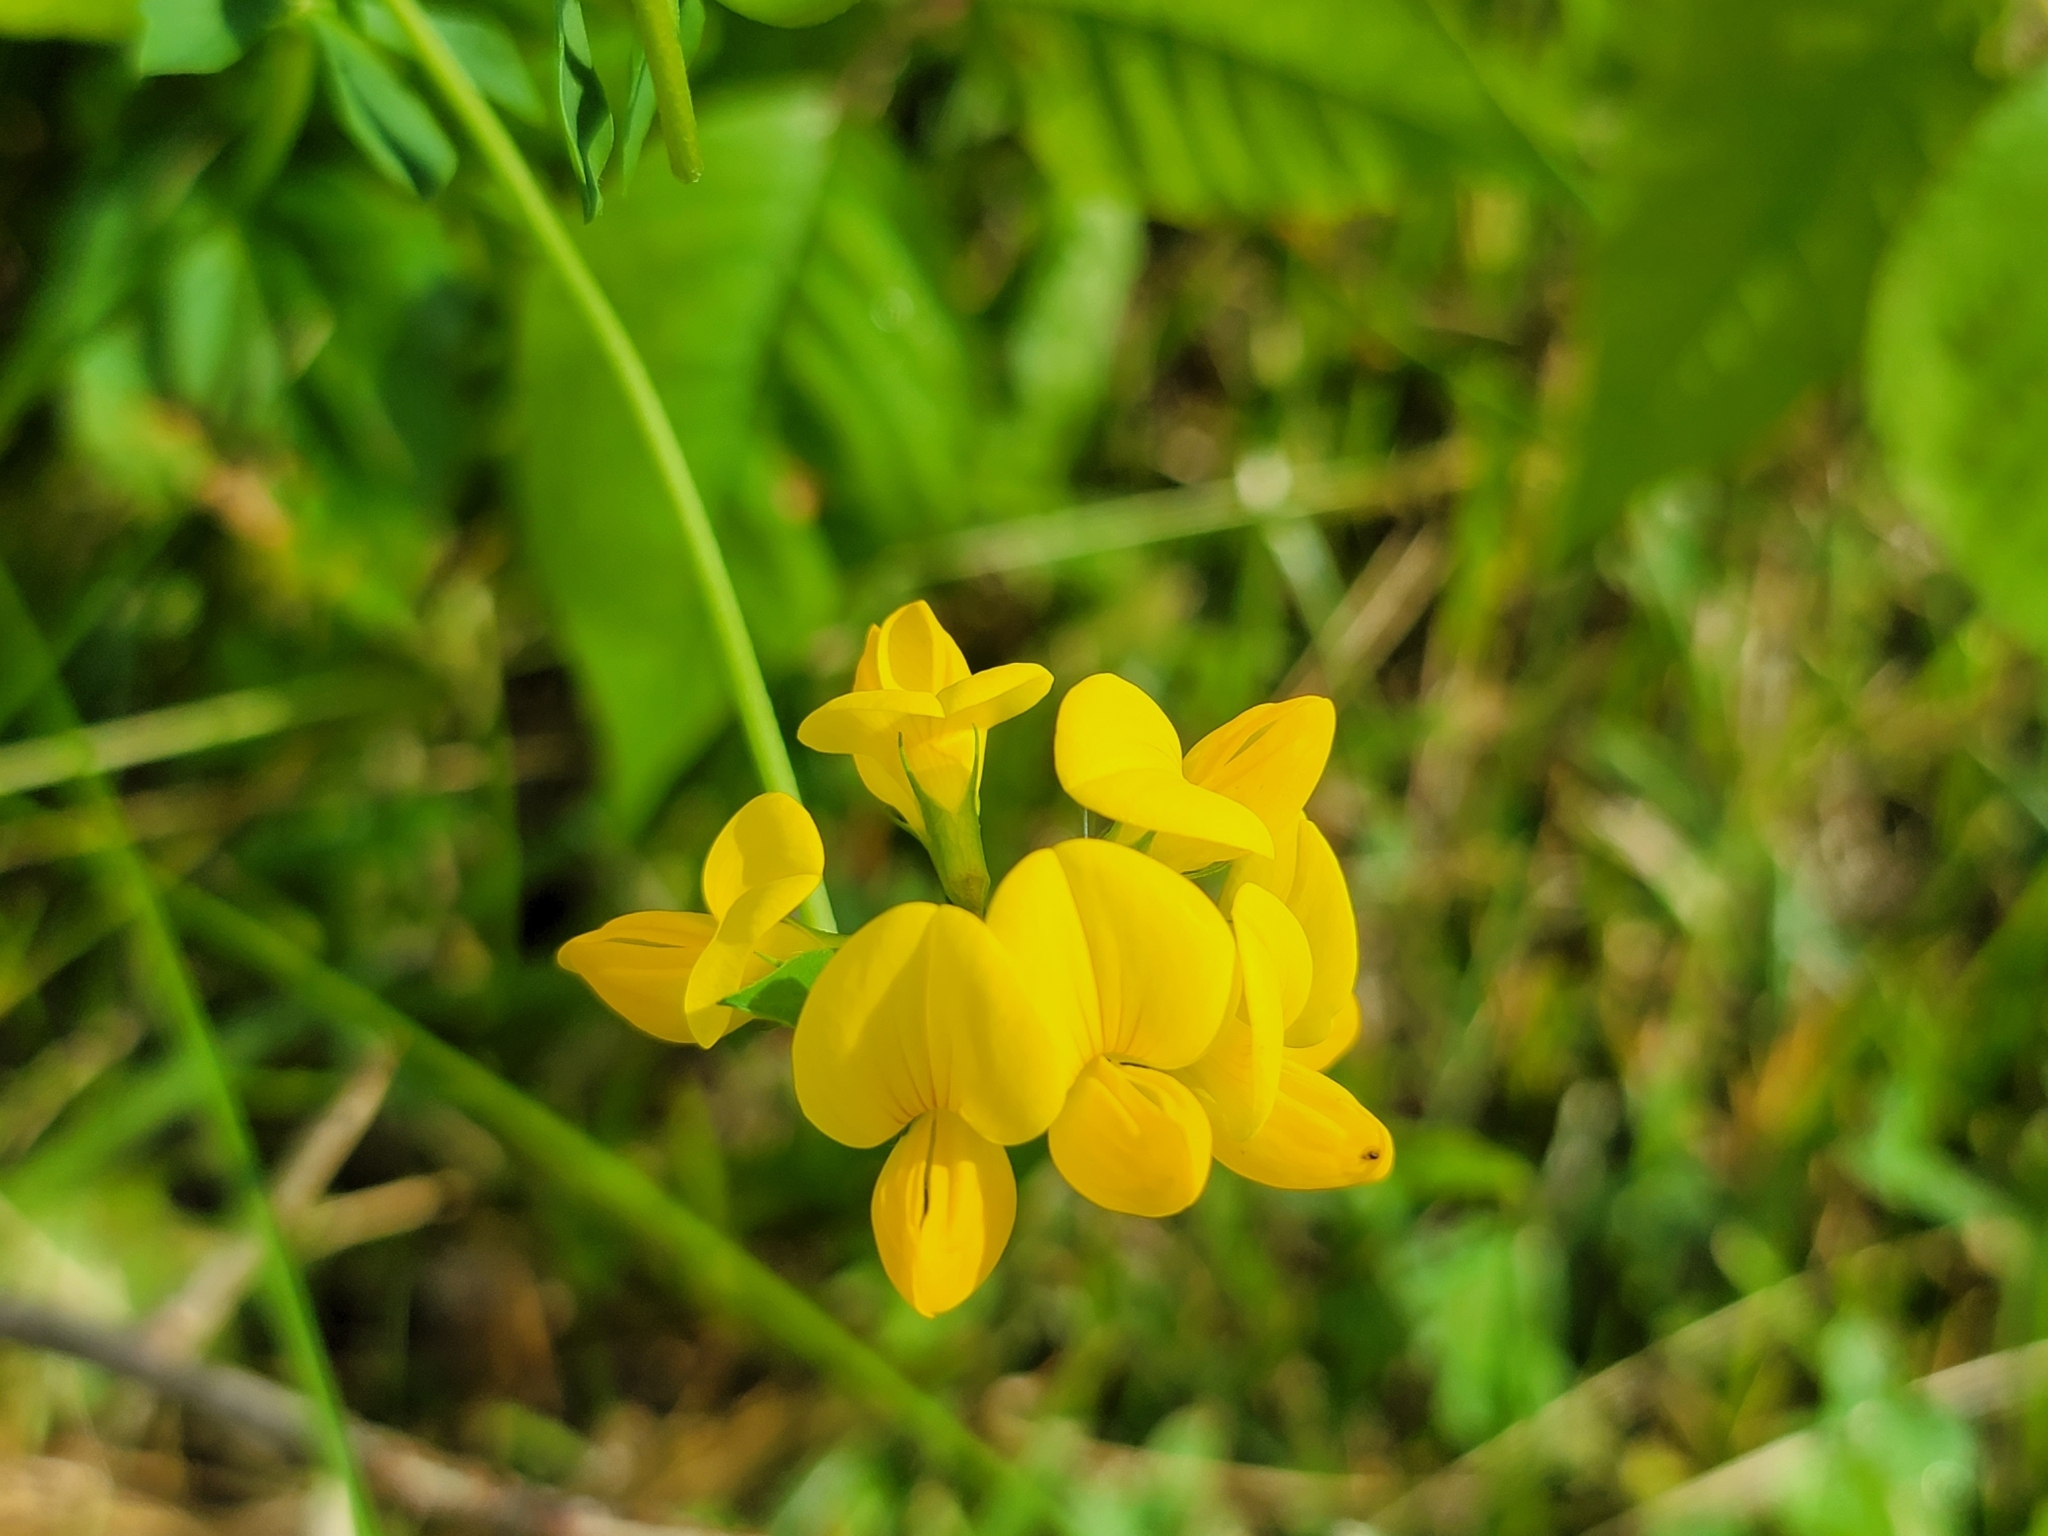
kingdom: Plantae
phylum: Tracheophyta
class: Magnoliopsida
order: Fabales
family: Fabaceae
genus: Lotus
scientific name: Lotus corniculatus
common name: Common bird's-foot-trefoil
